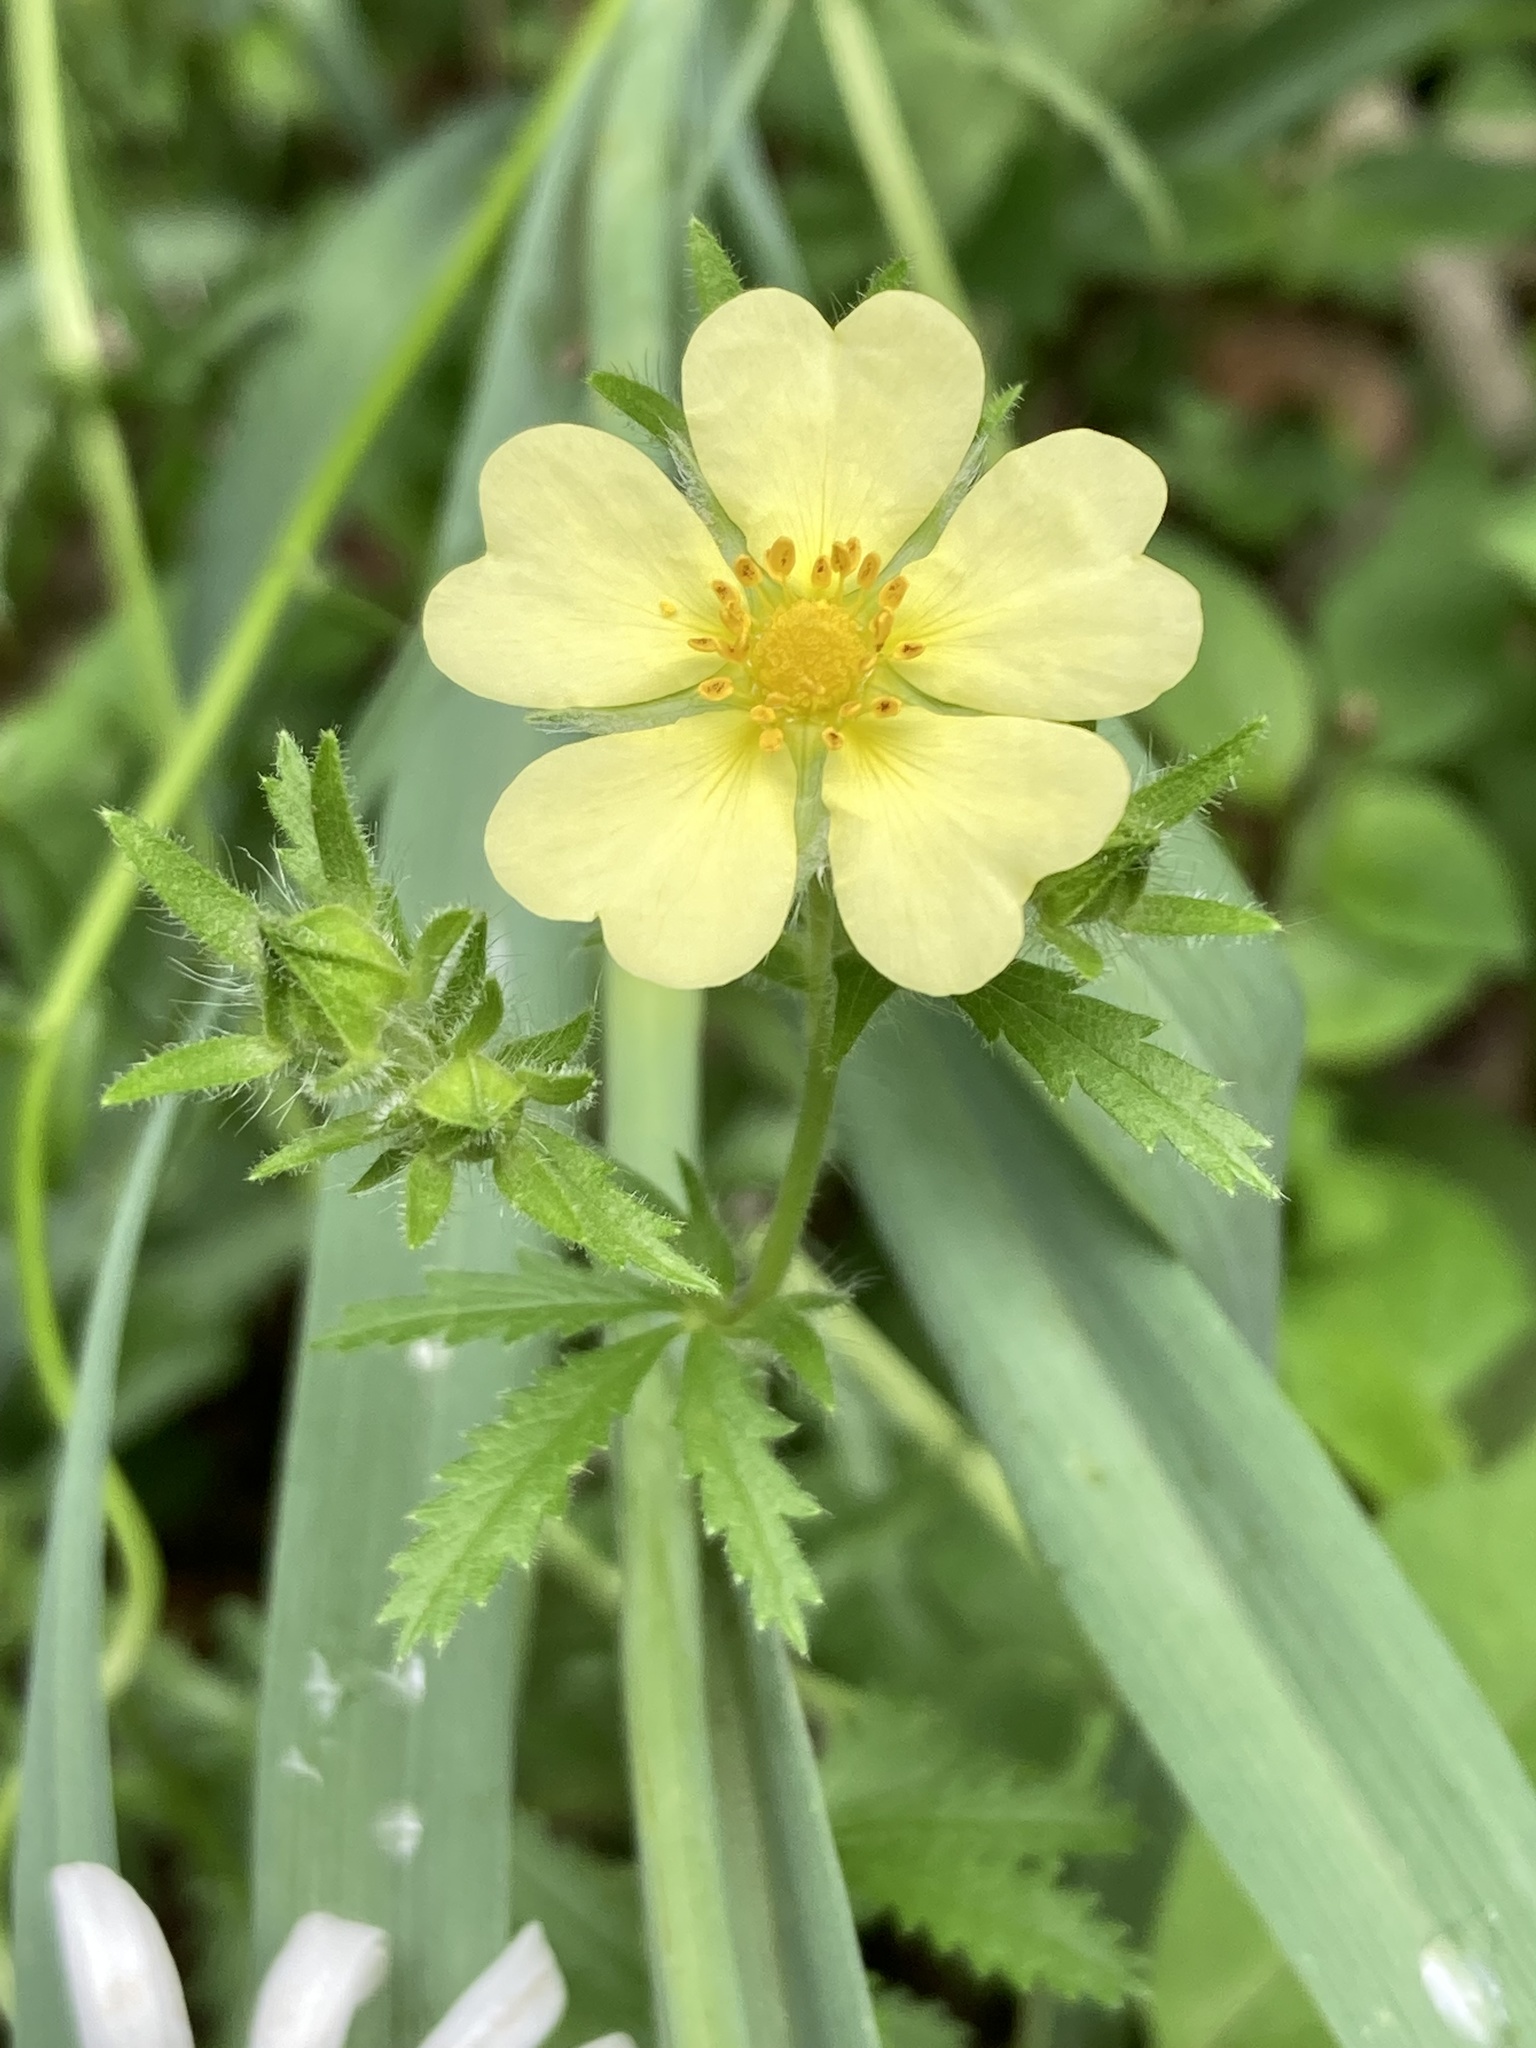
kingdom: Plantae
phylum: Tracheophyta
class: Magnoliopsida
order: Rosales
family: Rosaceae
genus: Potentilla
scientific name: Potentilla recta
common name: Sulphur cinquefoil
